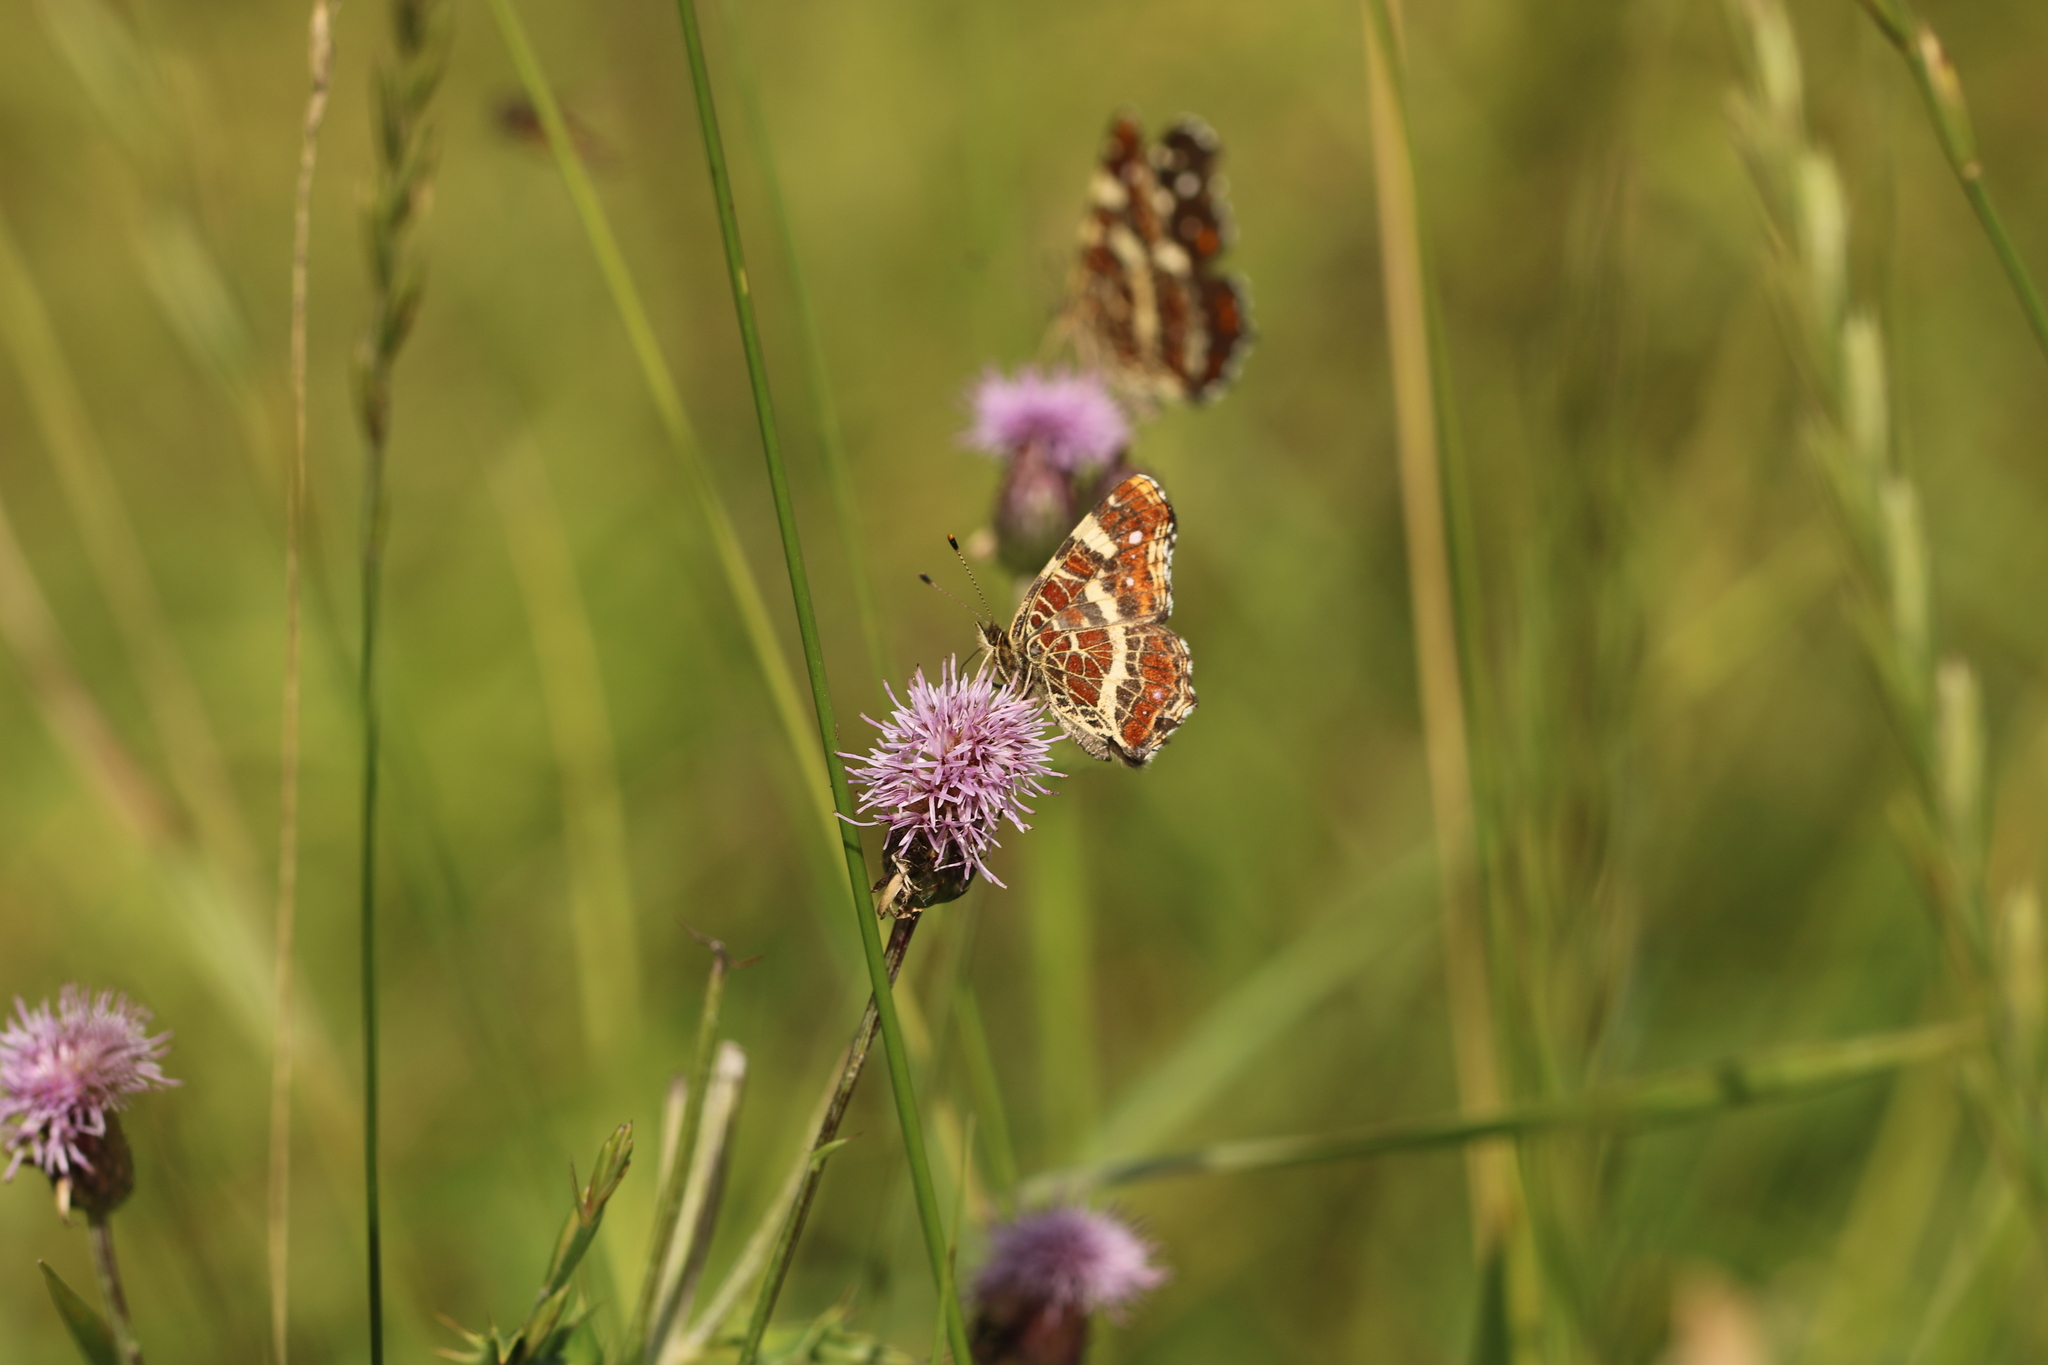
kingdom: Animalia
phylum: Arthropoda
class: Insecta
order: Lepidoptera
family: Nymphalidae
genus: Araschnia
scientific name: Araschnia levana
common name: Map butterfly
